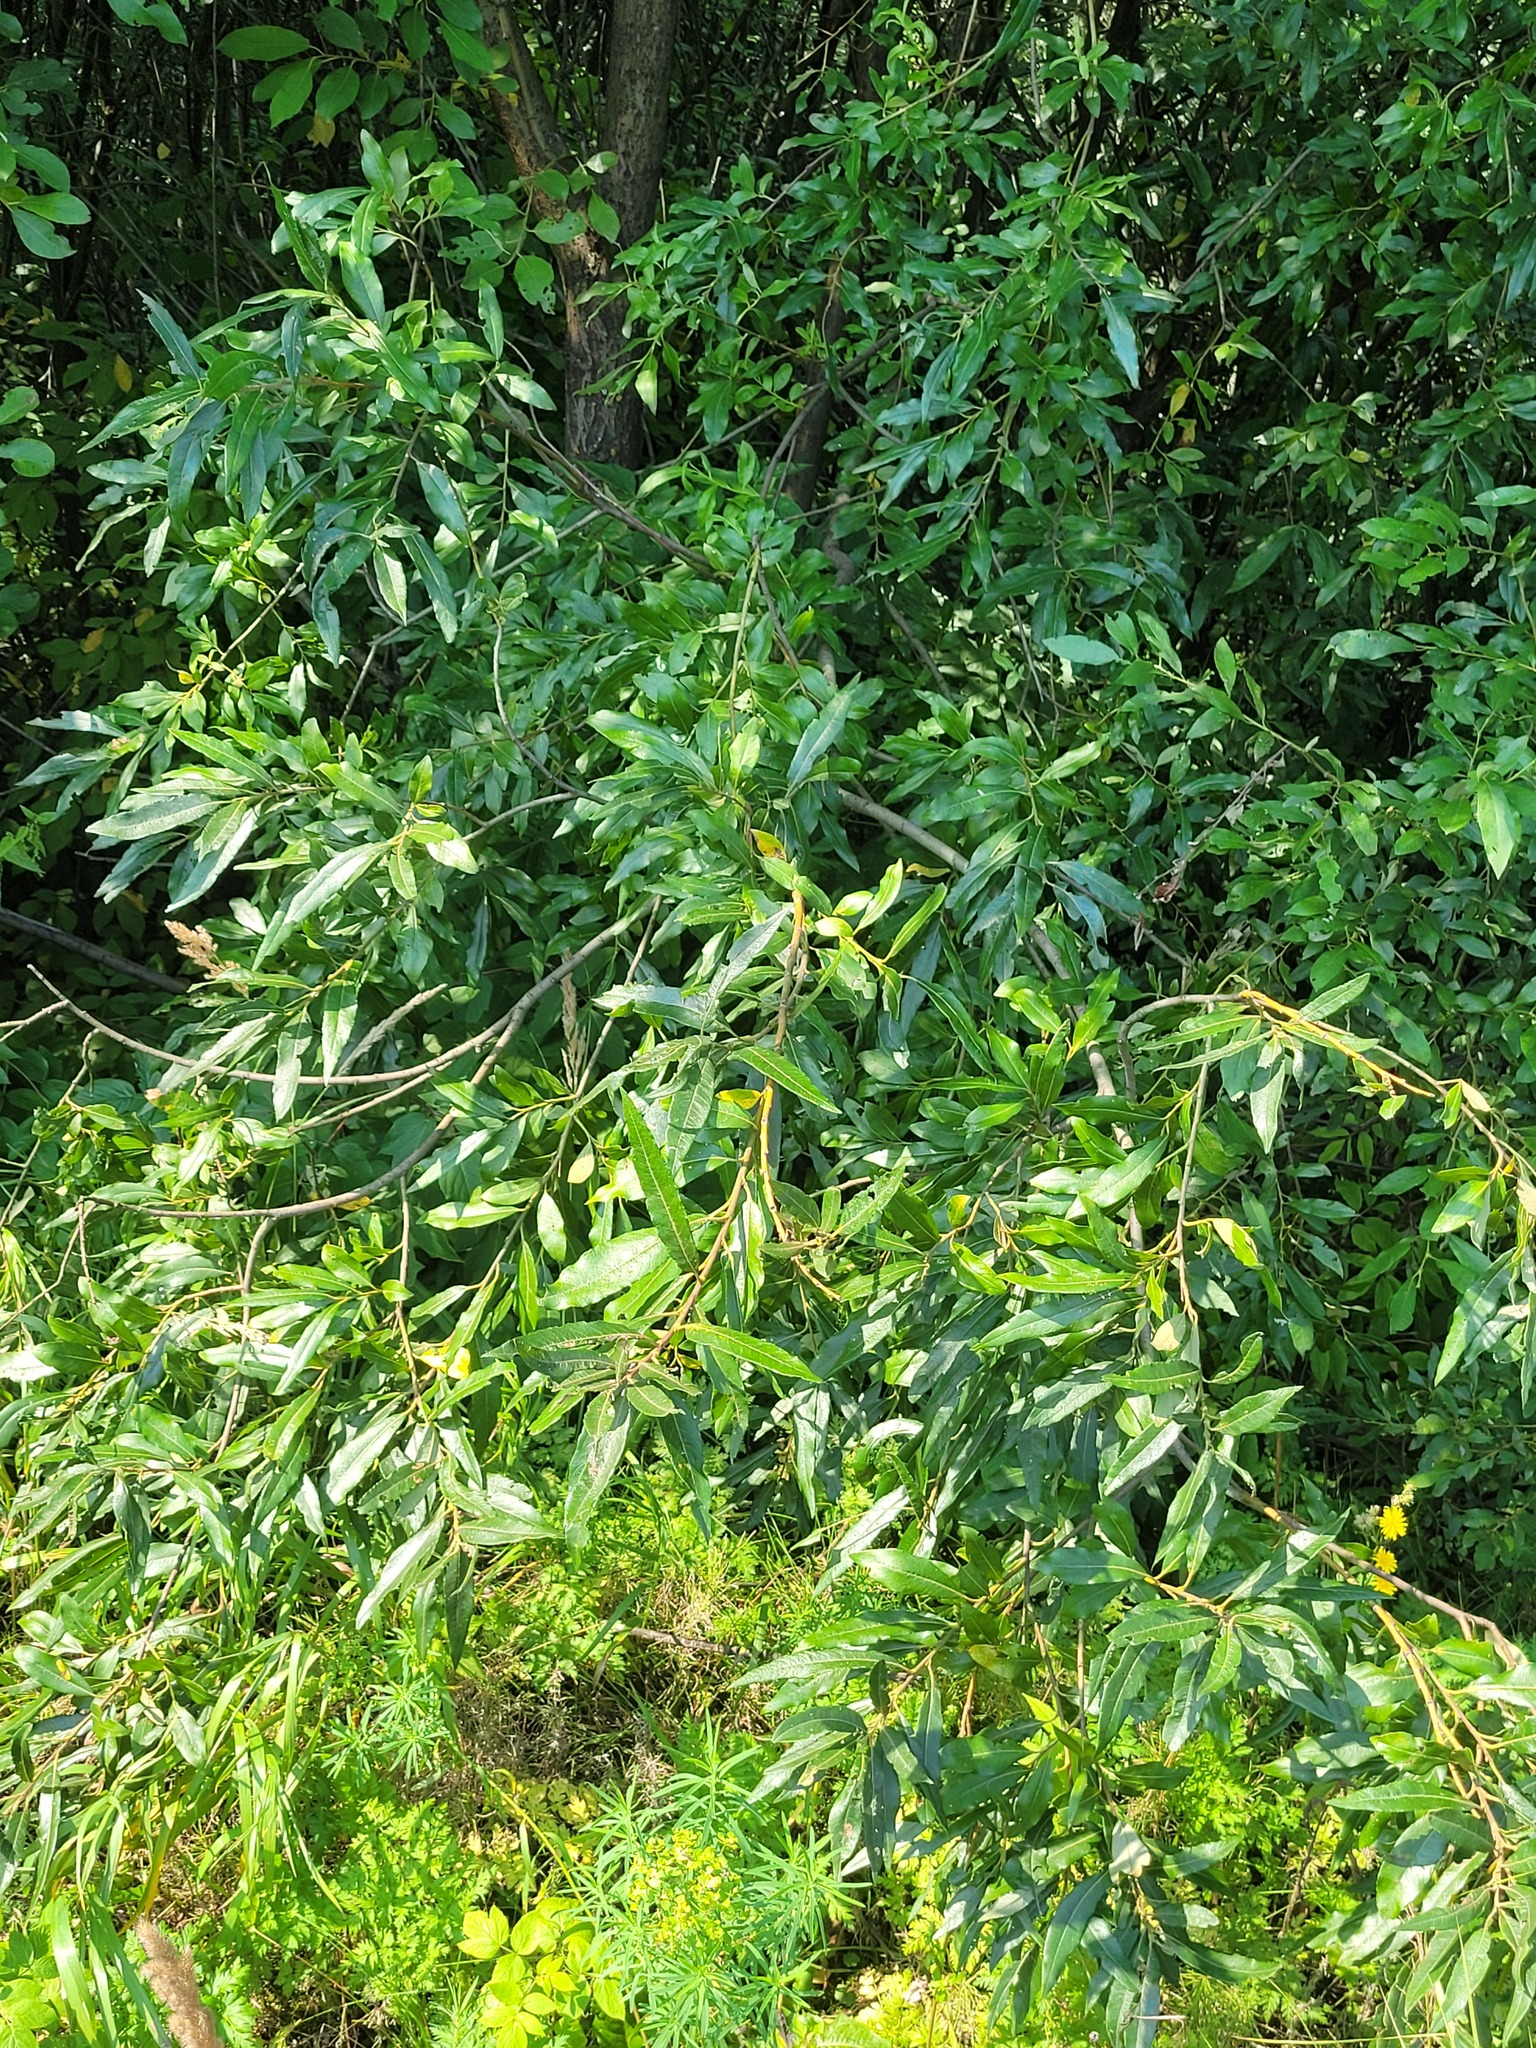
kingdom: Plantae
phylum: Tracheophyta
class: Magnoliopsida
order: Malpighiales
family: Salicaceae
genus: Salix
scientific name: Salix gmelinii
